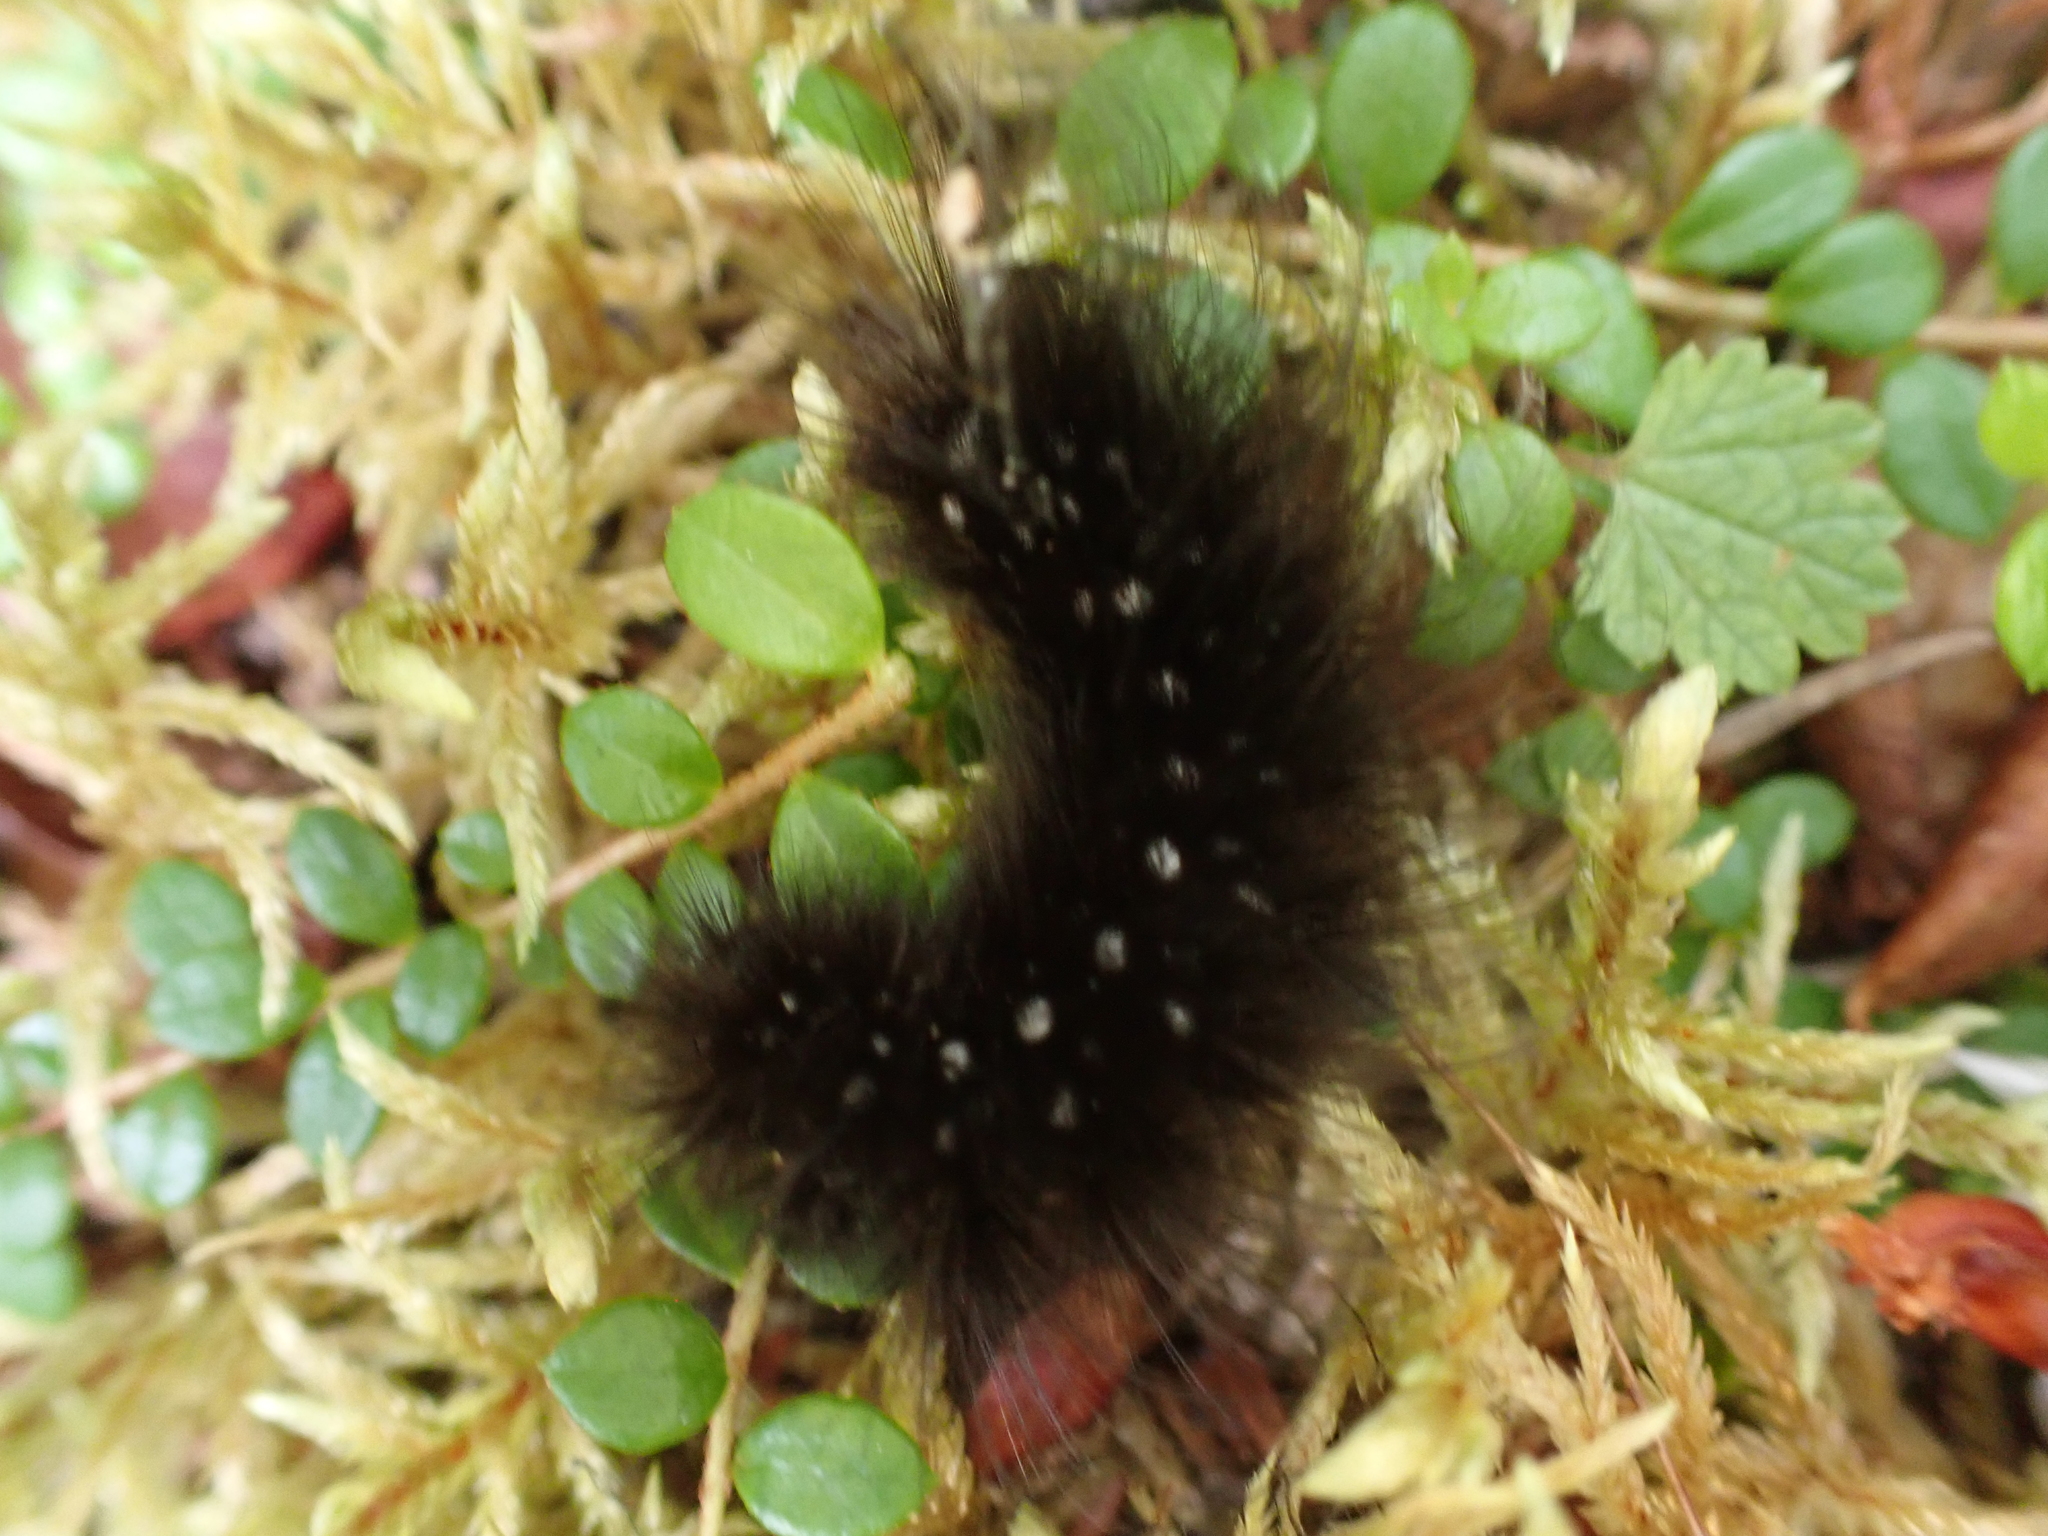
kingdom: Animalia
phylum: Arthropoda
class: Insecta
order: Lepidoptera
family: Erebidae
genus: Arctia
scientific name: Arctia parthenos
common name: St. lawrence tiger moth
